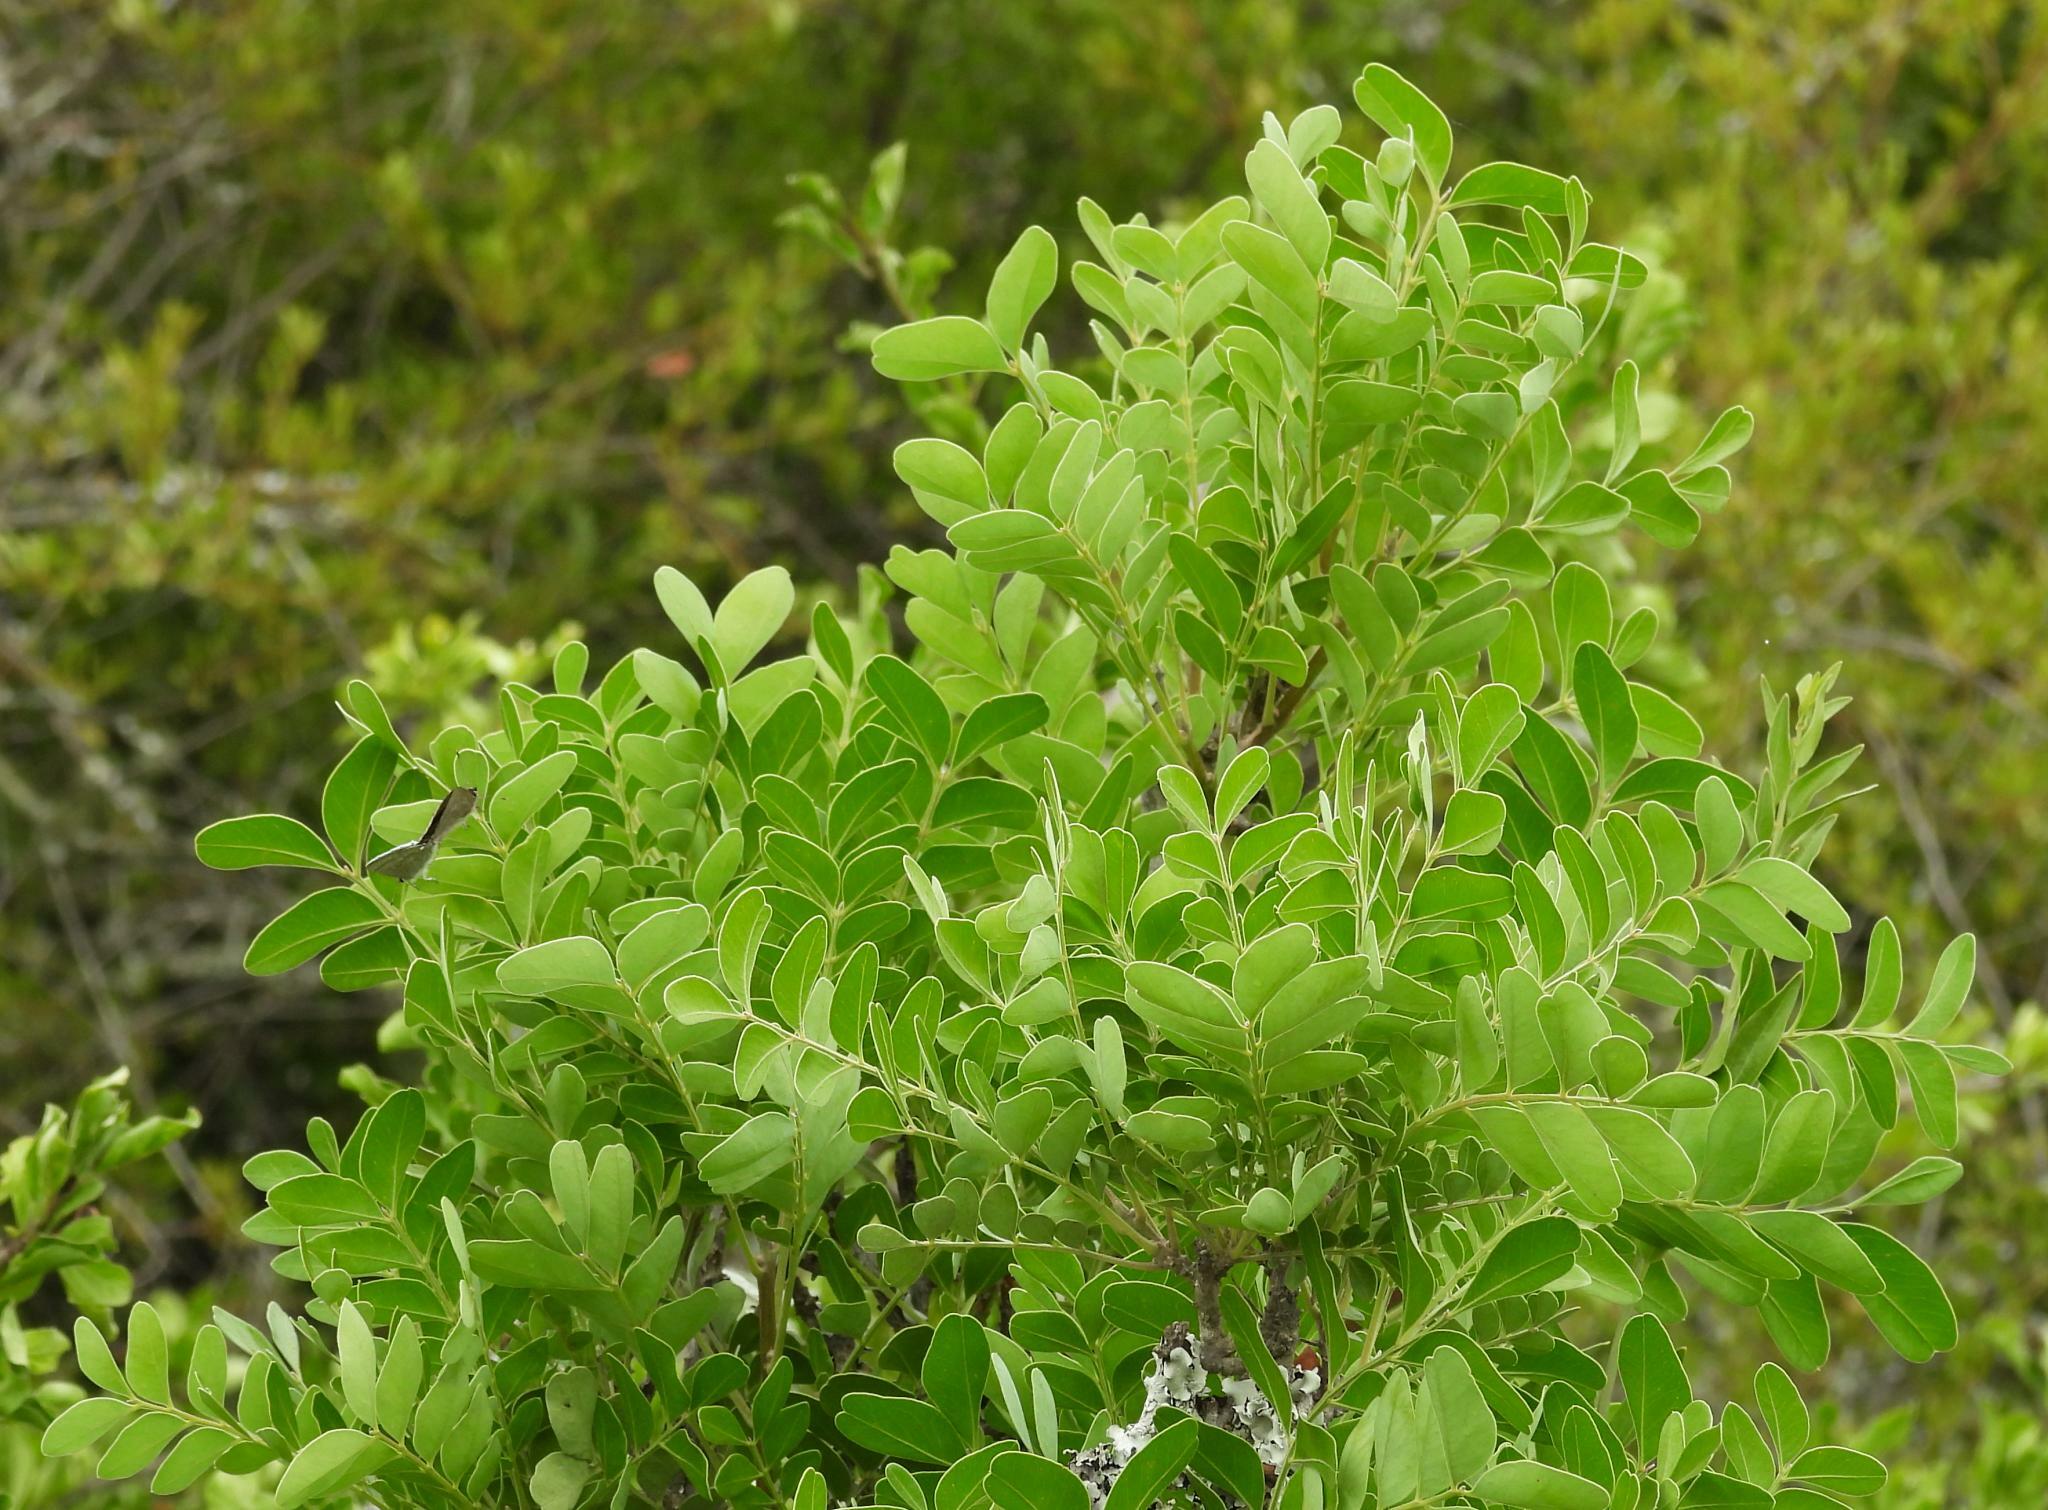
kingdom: Plantae
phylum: Tracheophyta
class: Magnoliopsida
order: Sapindales
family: Rutaceae
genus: Ptaeroxylon
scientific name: Ptaeroxylon obliquum
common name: Sneezewood
